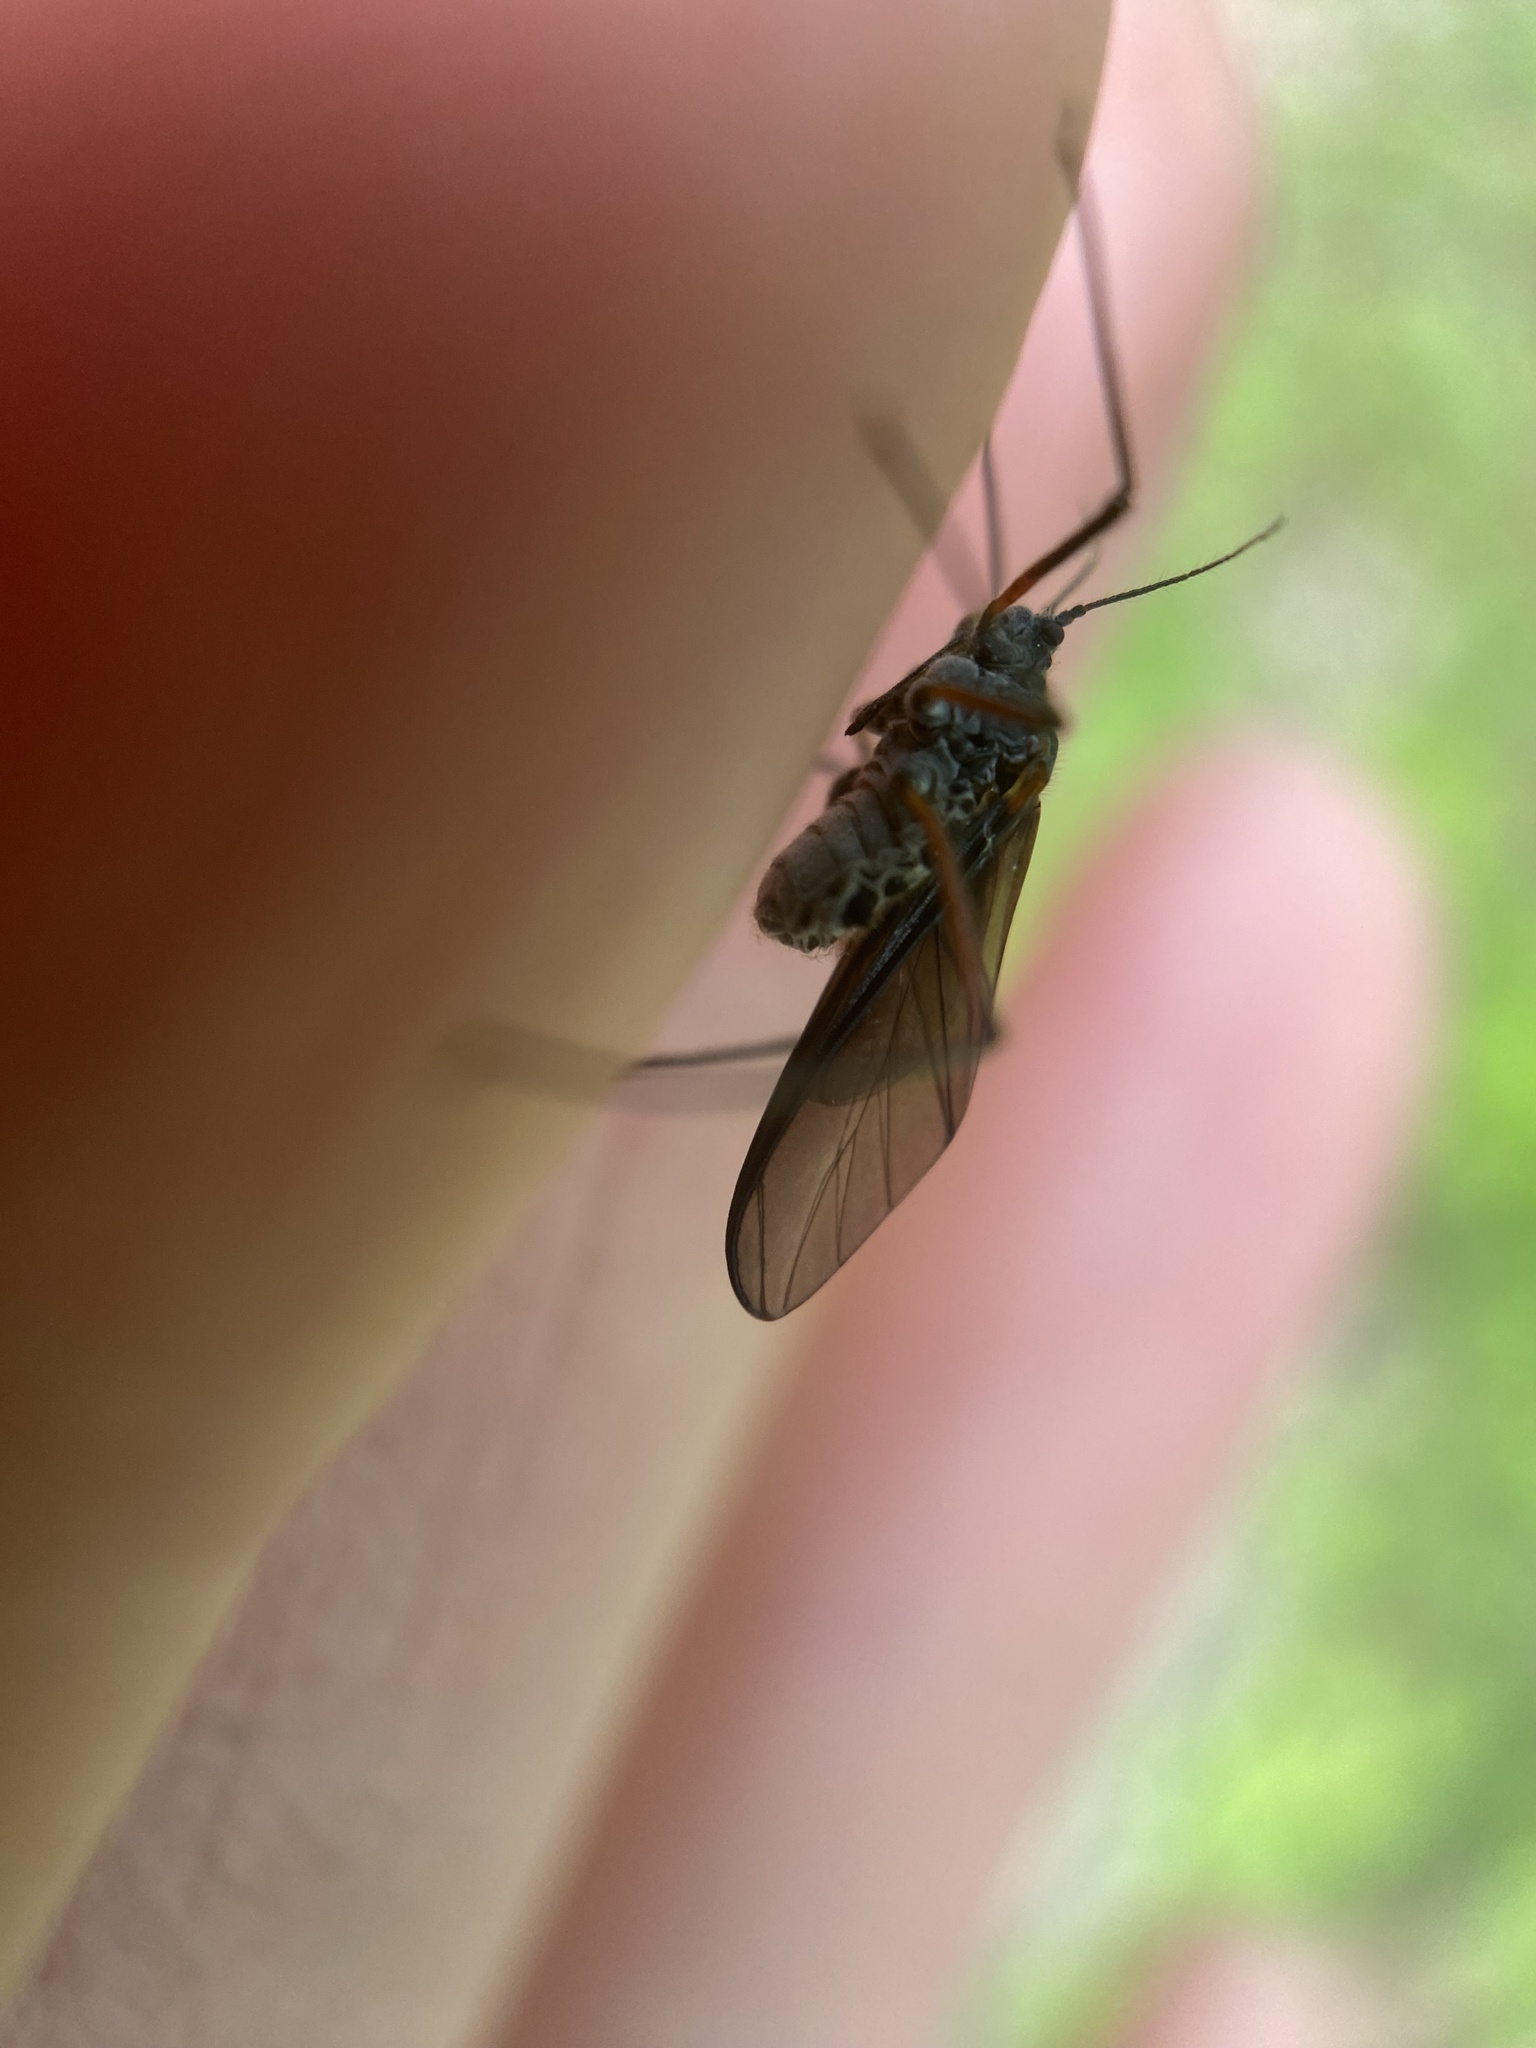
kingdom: Animalia
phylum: Arthropoda
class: Insecta
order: Hemiptera
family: Aphididae
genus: Longistigma
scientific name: Longistigma caryae
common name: Giant bark aphid
